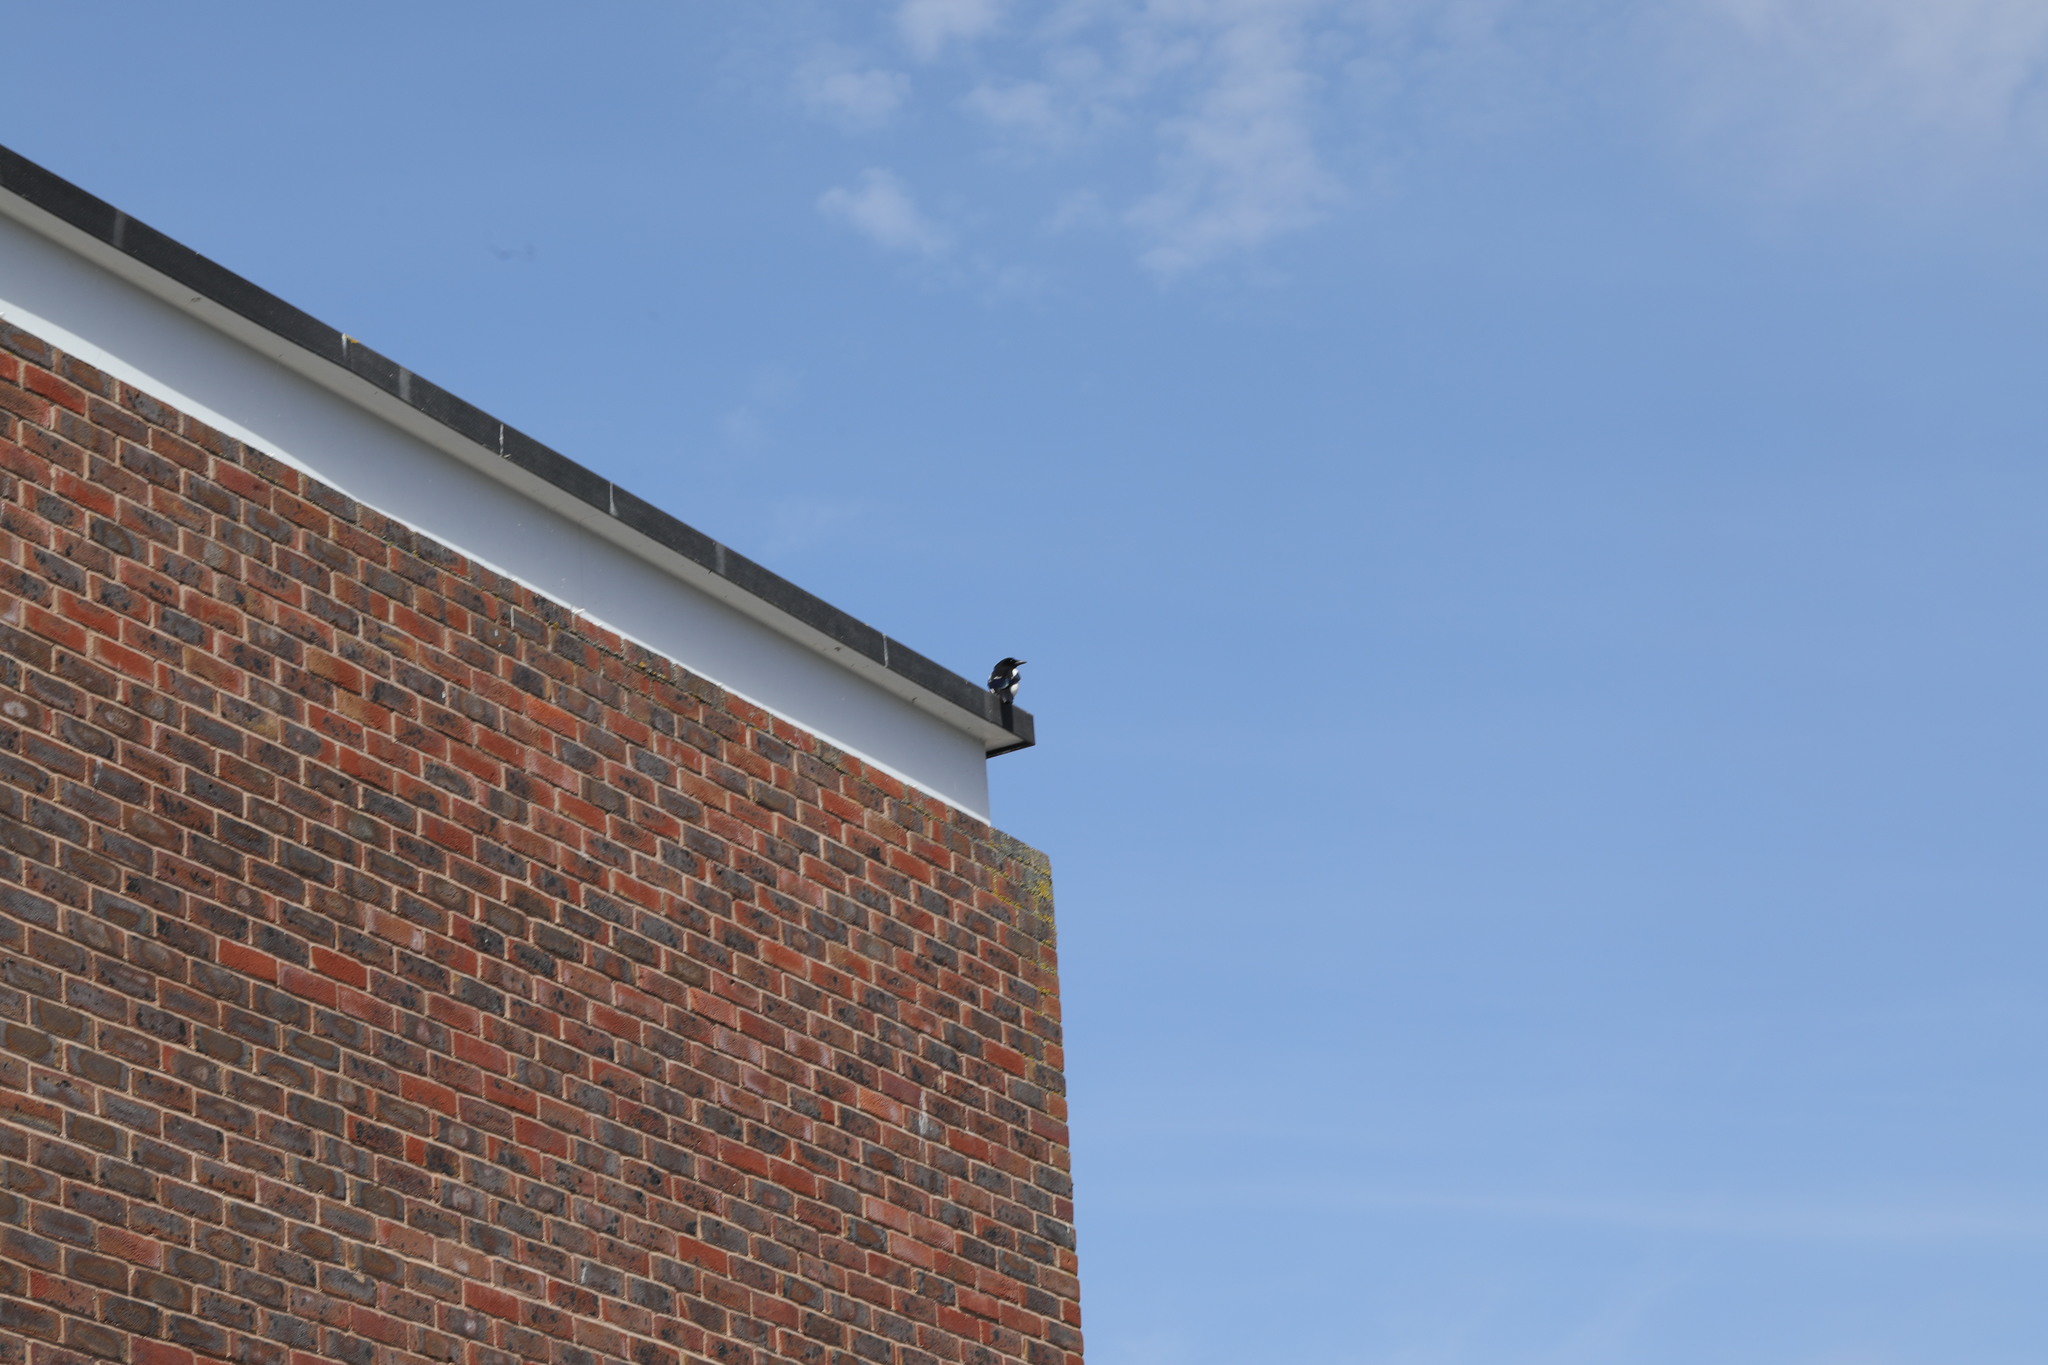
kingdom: Animalia
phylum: Chordata
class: Aves
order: Passeriformes
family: Corvidae
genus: Pica
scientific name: Pica pica
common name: Eurasian magpie
